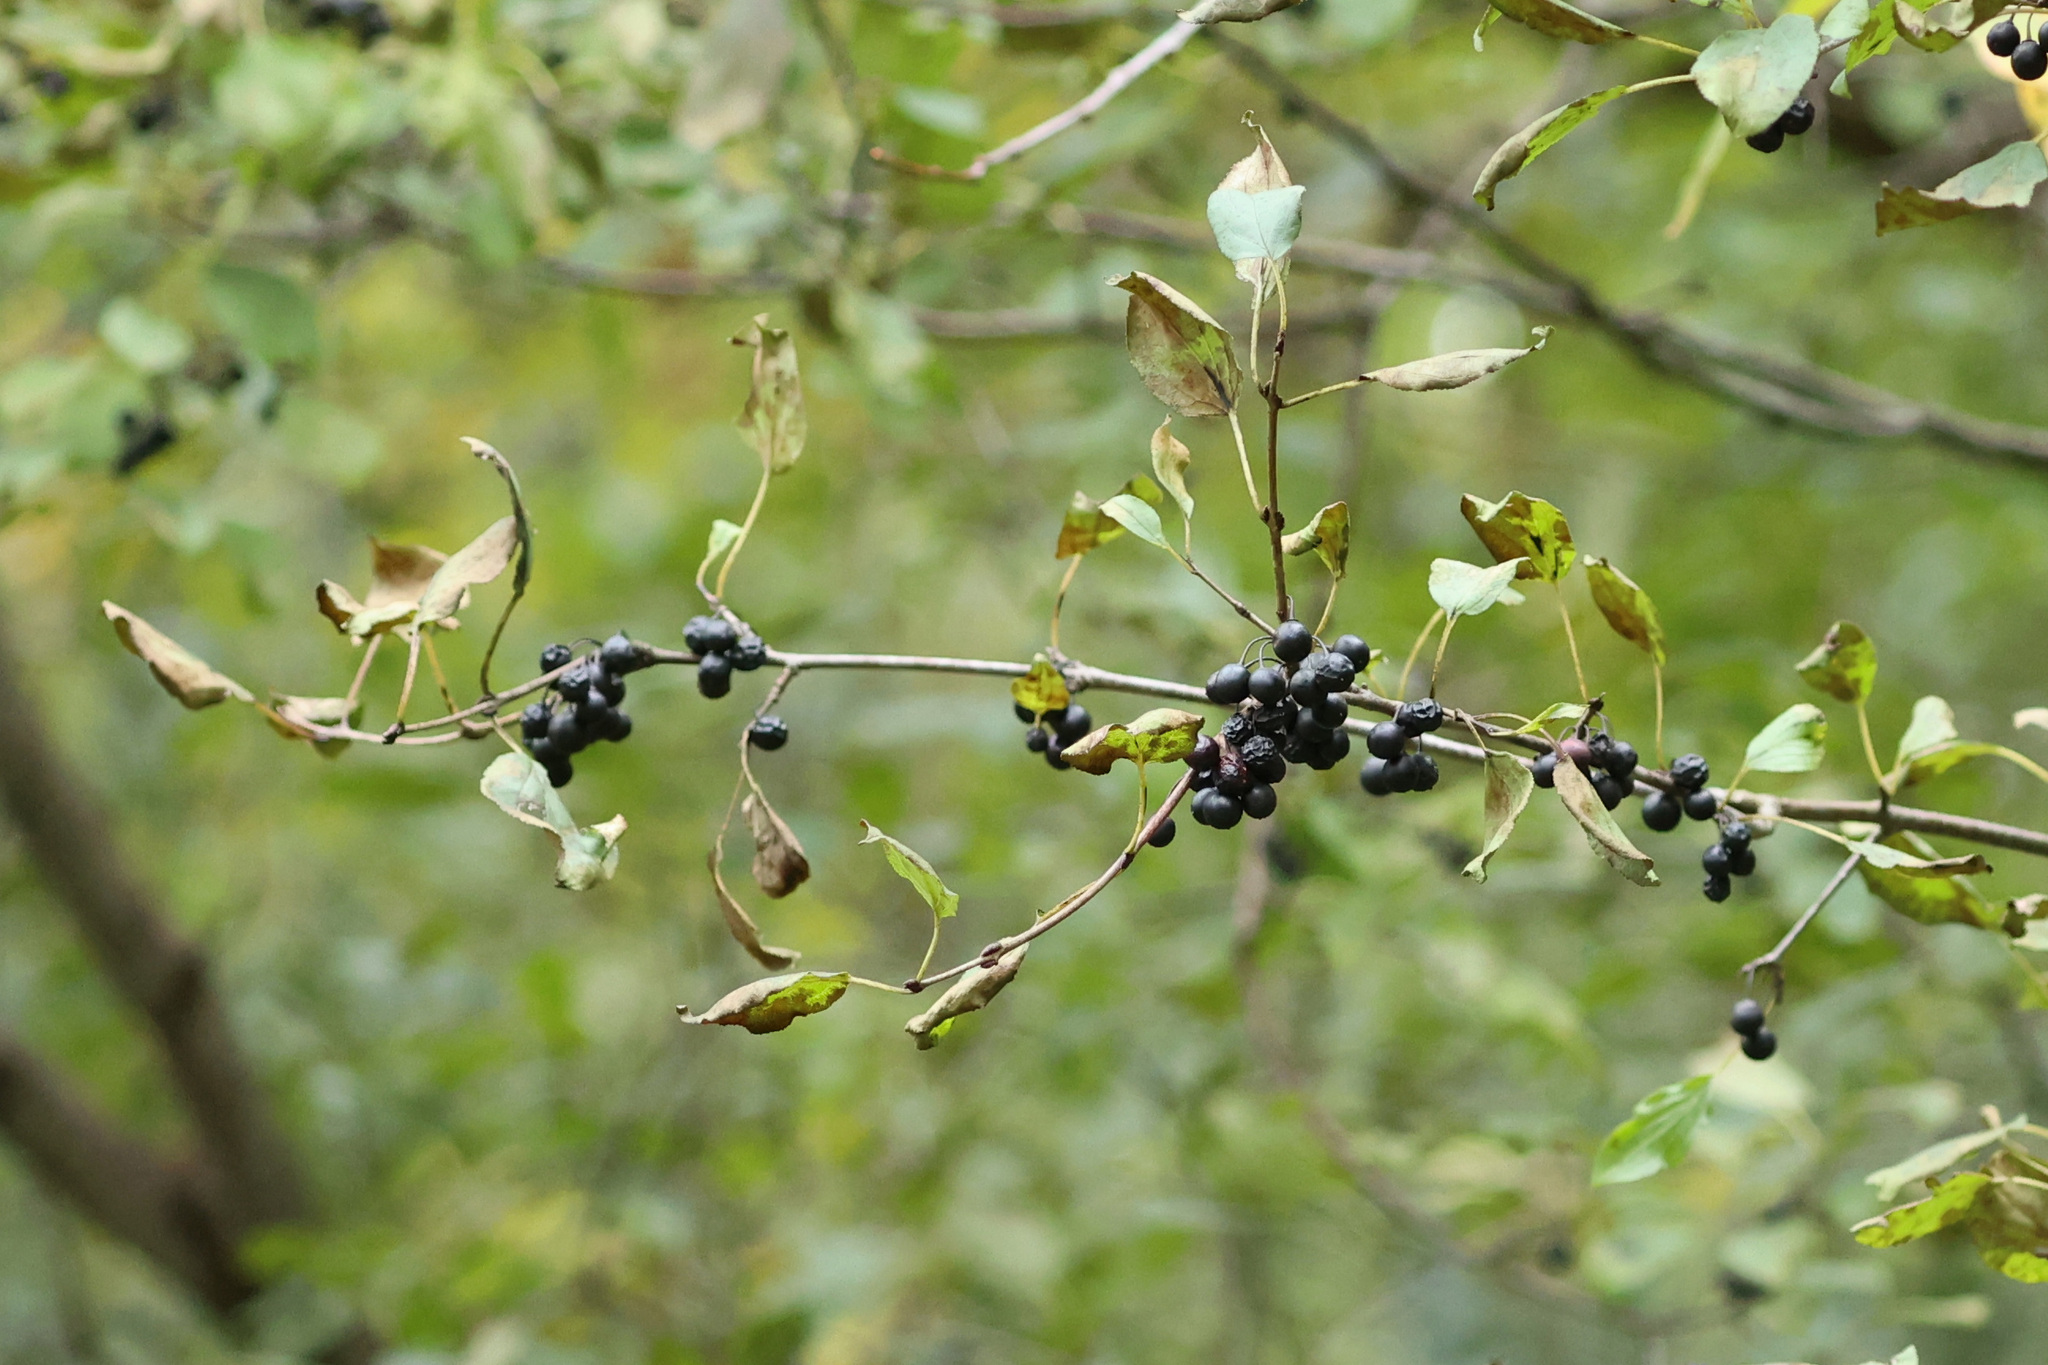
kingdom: Plantae
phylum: Tracheophyta
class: Magnoliopsida
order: Rosales
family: Rhamnaceae
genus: Rhamnus
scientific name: Rhamnus cathartica
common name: Common buckthorn
